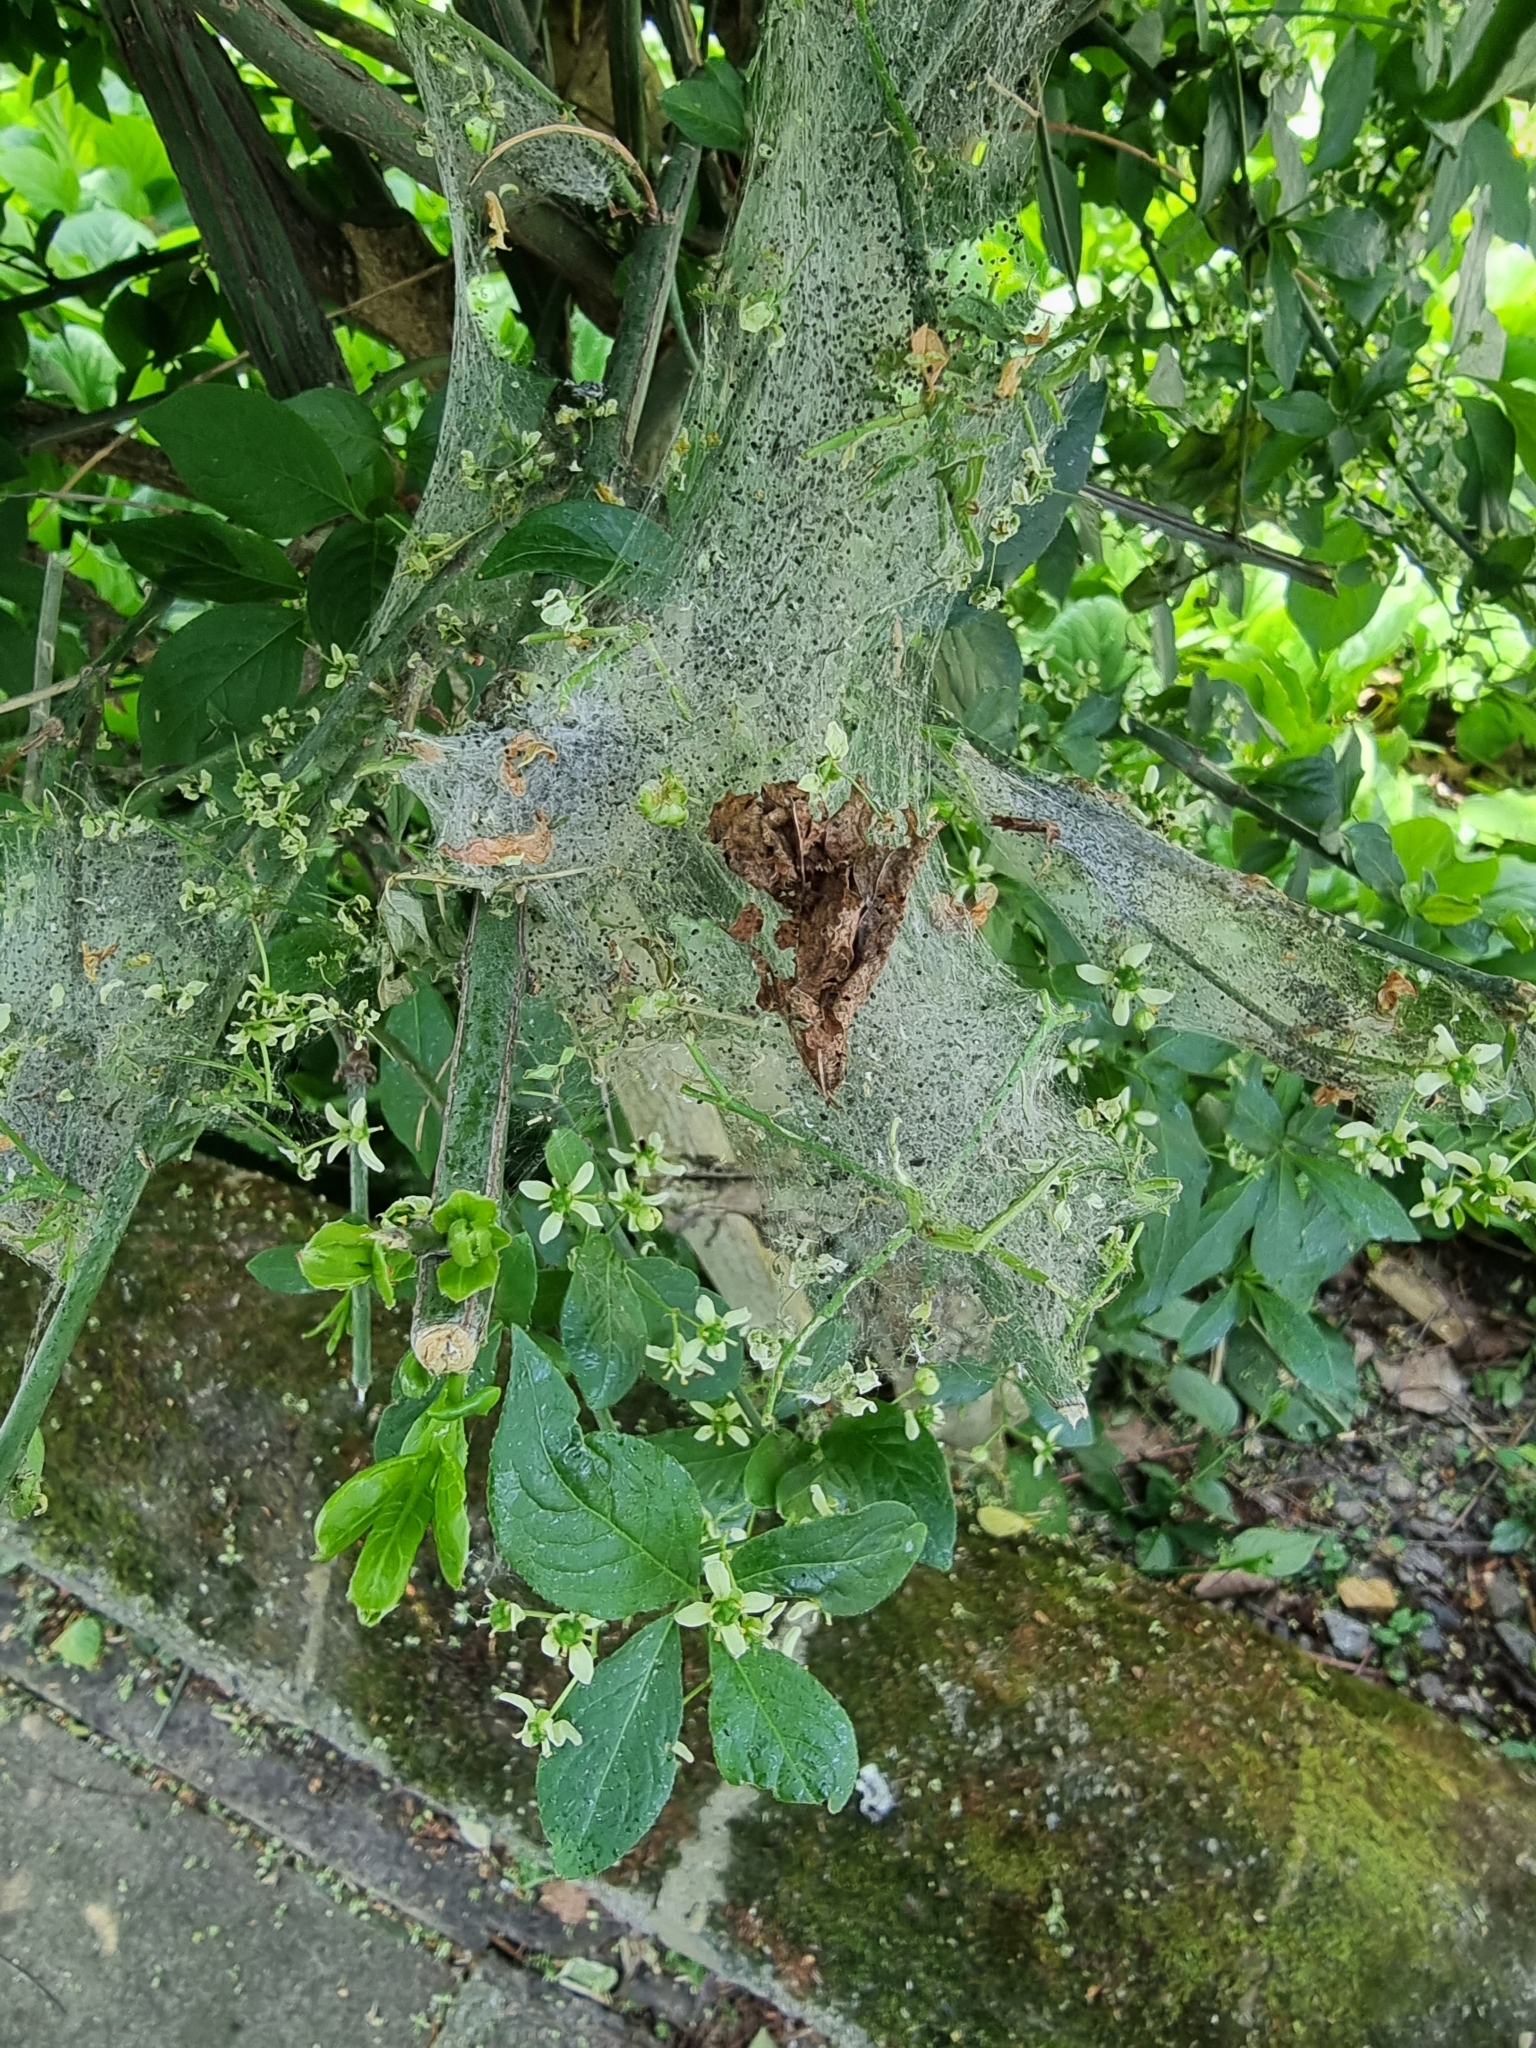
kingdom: Animalia
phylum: Arthropoda
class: Insecta
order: Lepidoptera
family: Yponomeutidae
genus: Yponomeuta
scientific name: Yponomeuta cagnagellus
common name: Spindle ermine
